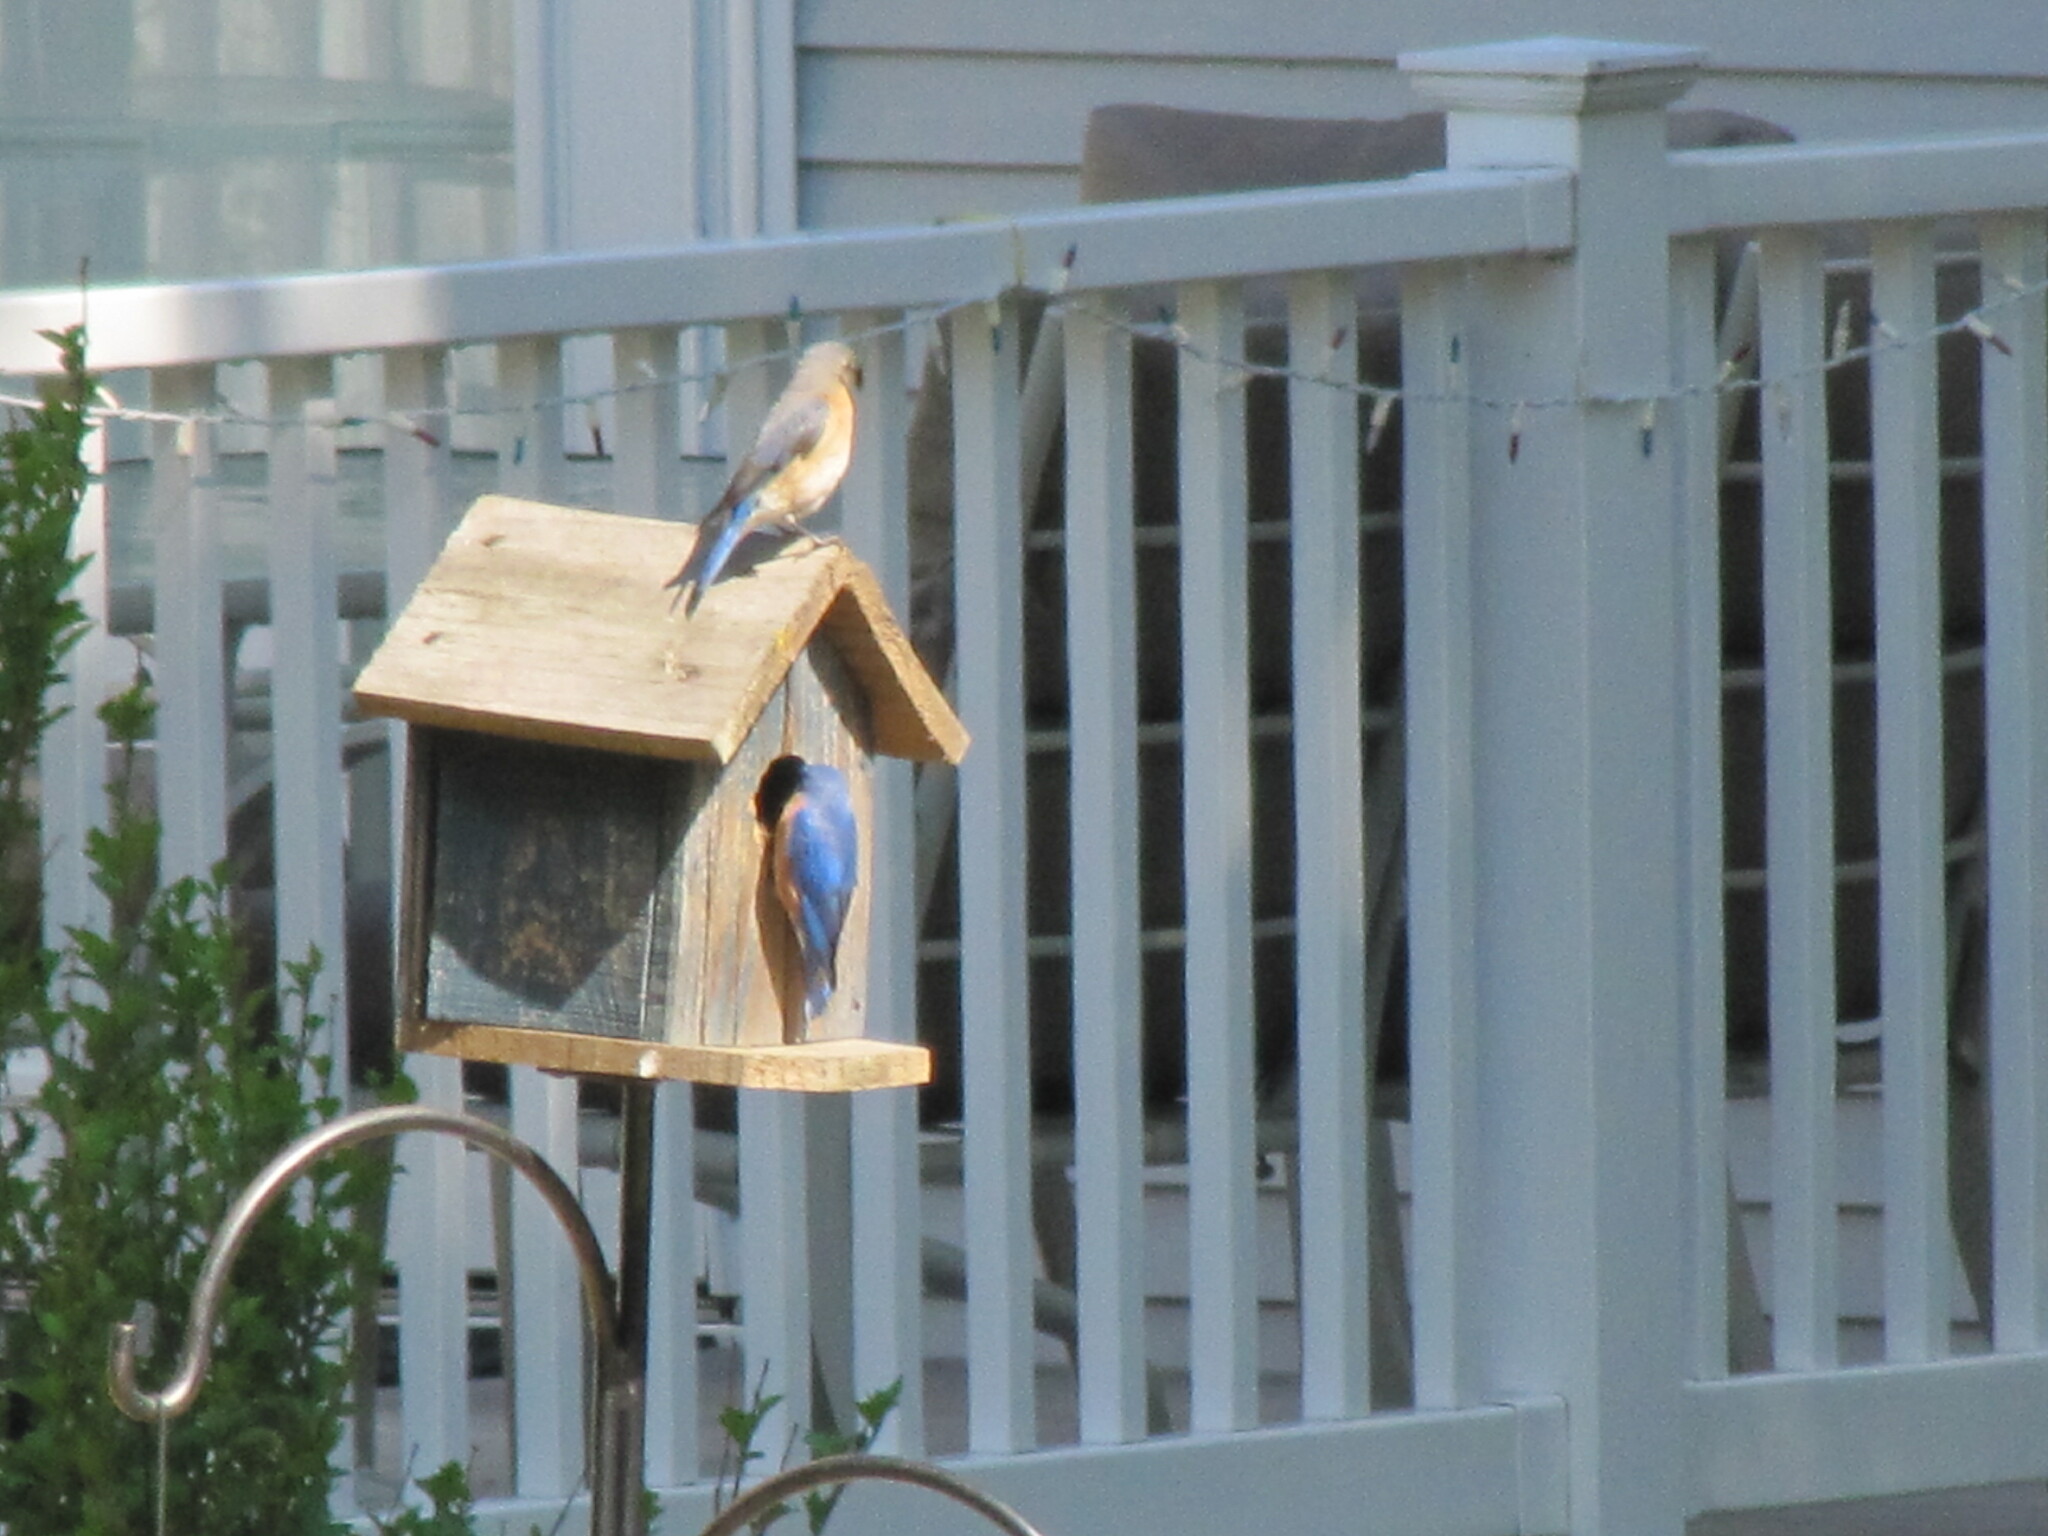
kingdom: Animalia
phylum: Chordata
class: Aves
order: Passeriformes
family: Turdidae
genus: Sialia
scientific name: Sialia sialis
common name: Eastern bluebird
